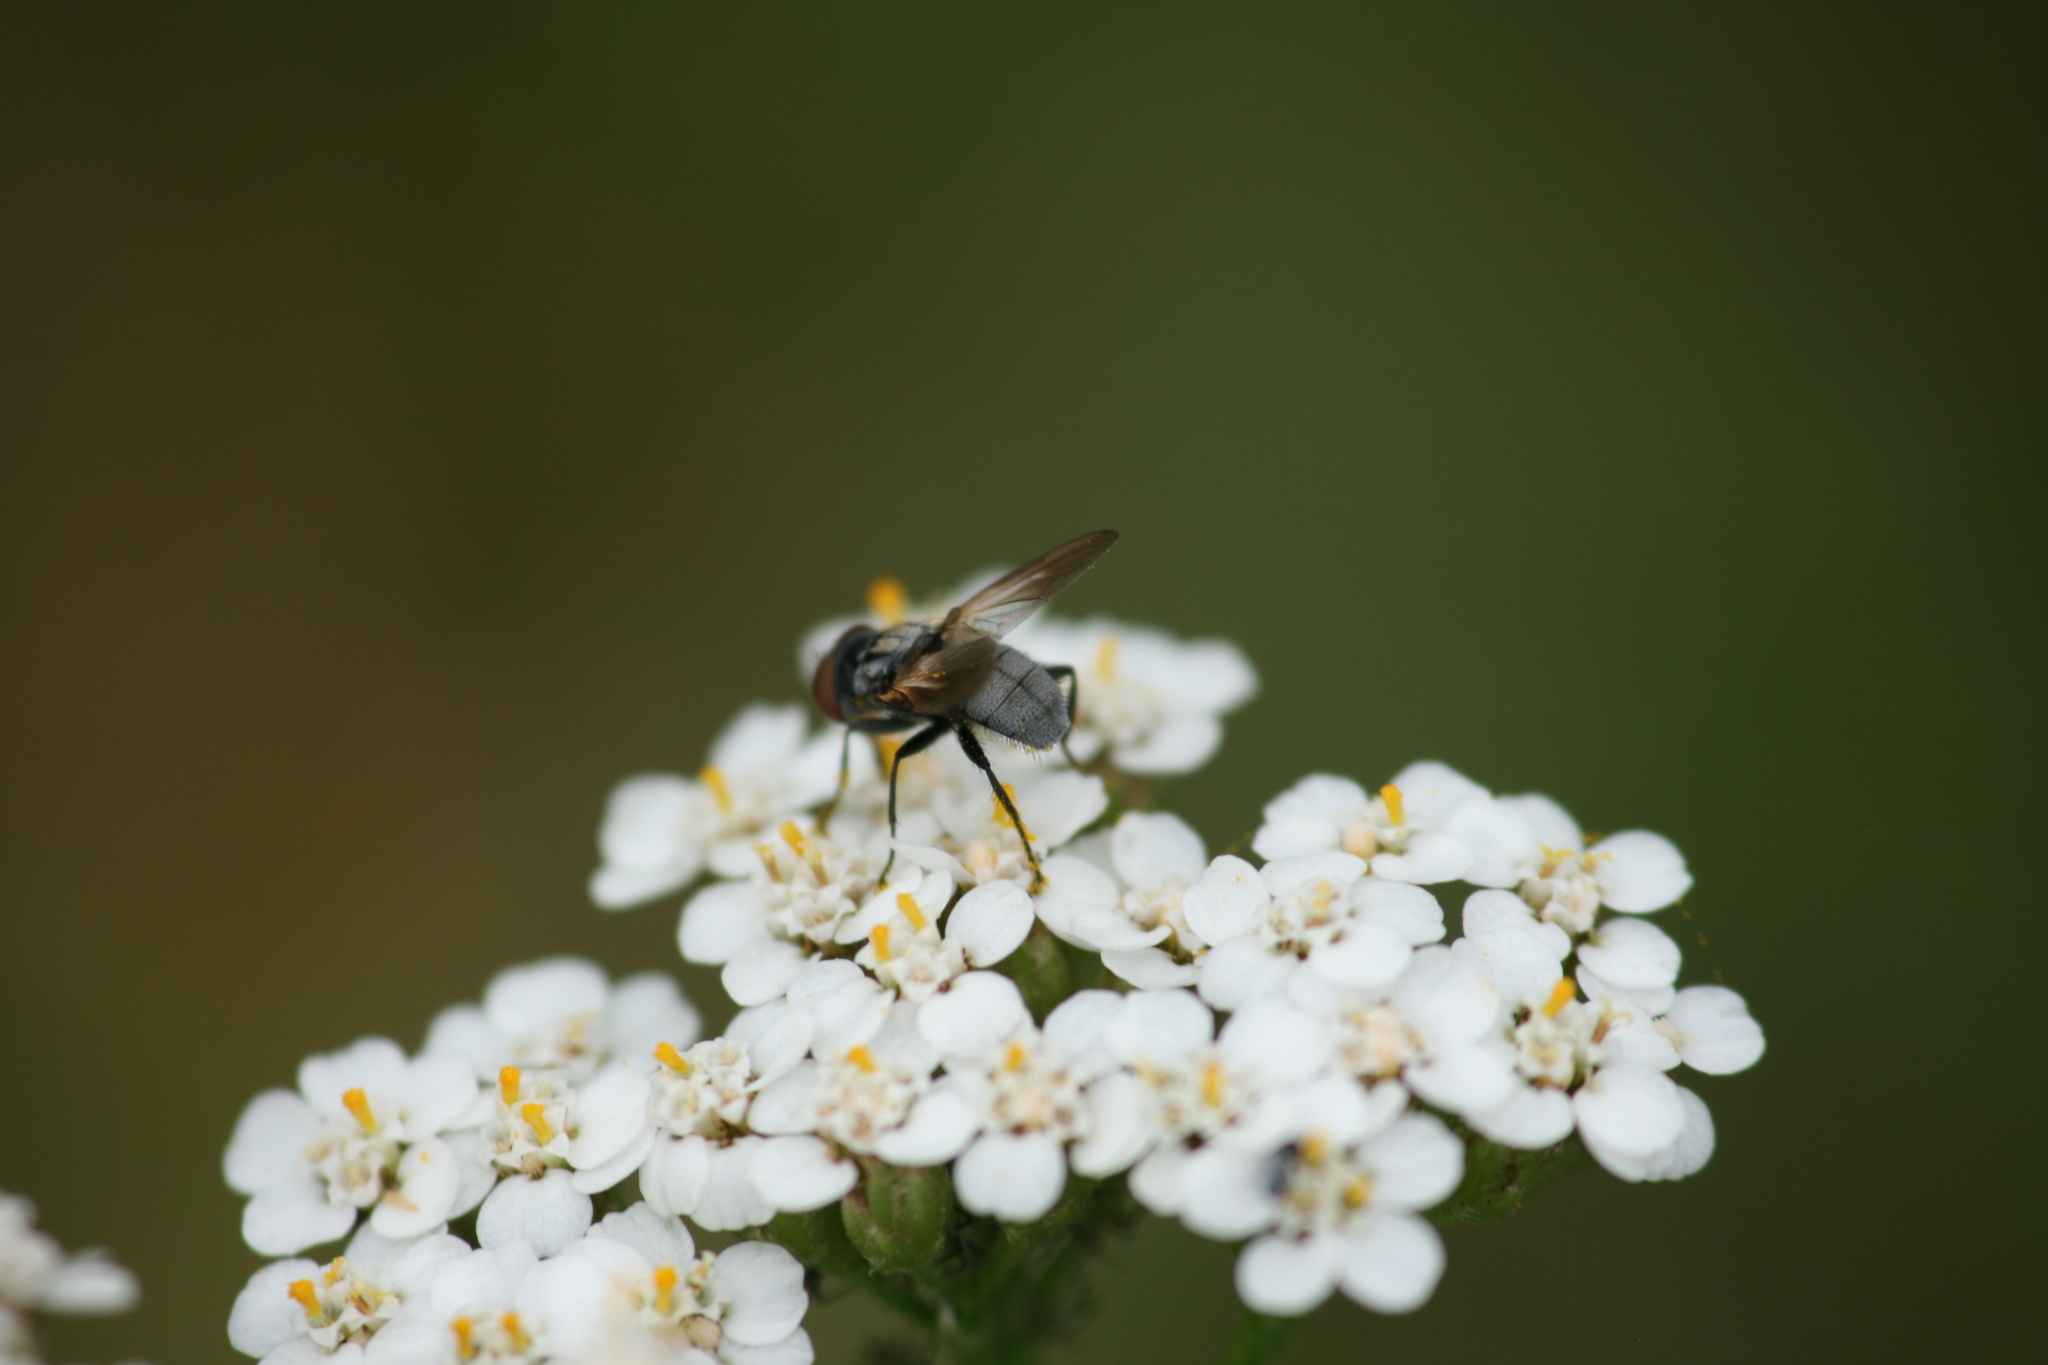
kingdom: Animalia
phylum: Arthropoda
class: Insecta
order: Diptera
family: Tachinidae
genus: Phasia
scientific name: Phasia obesa
